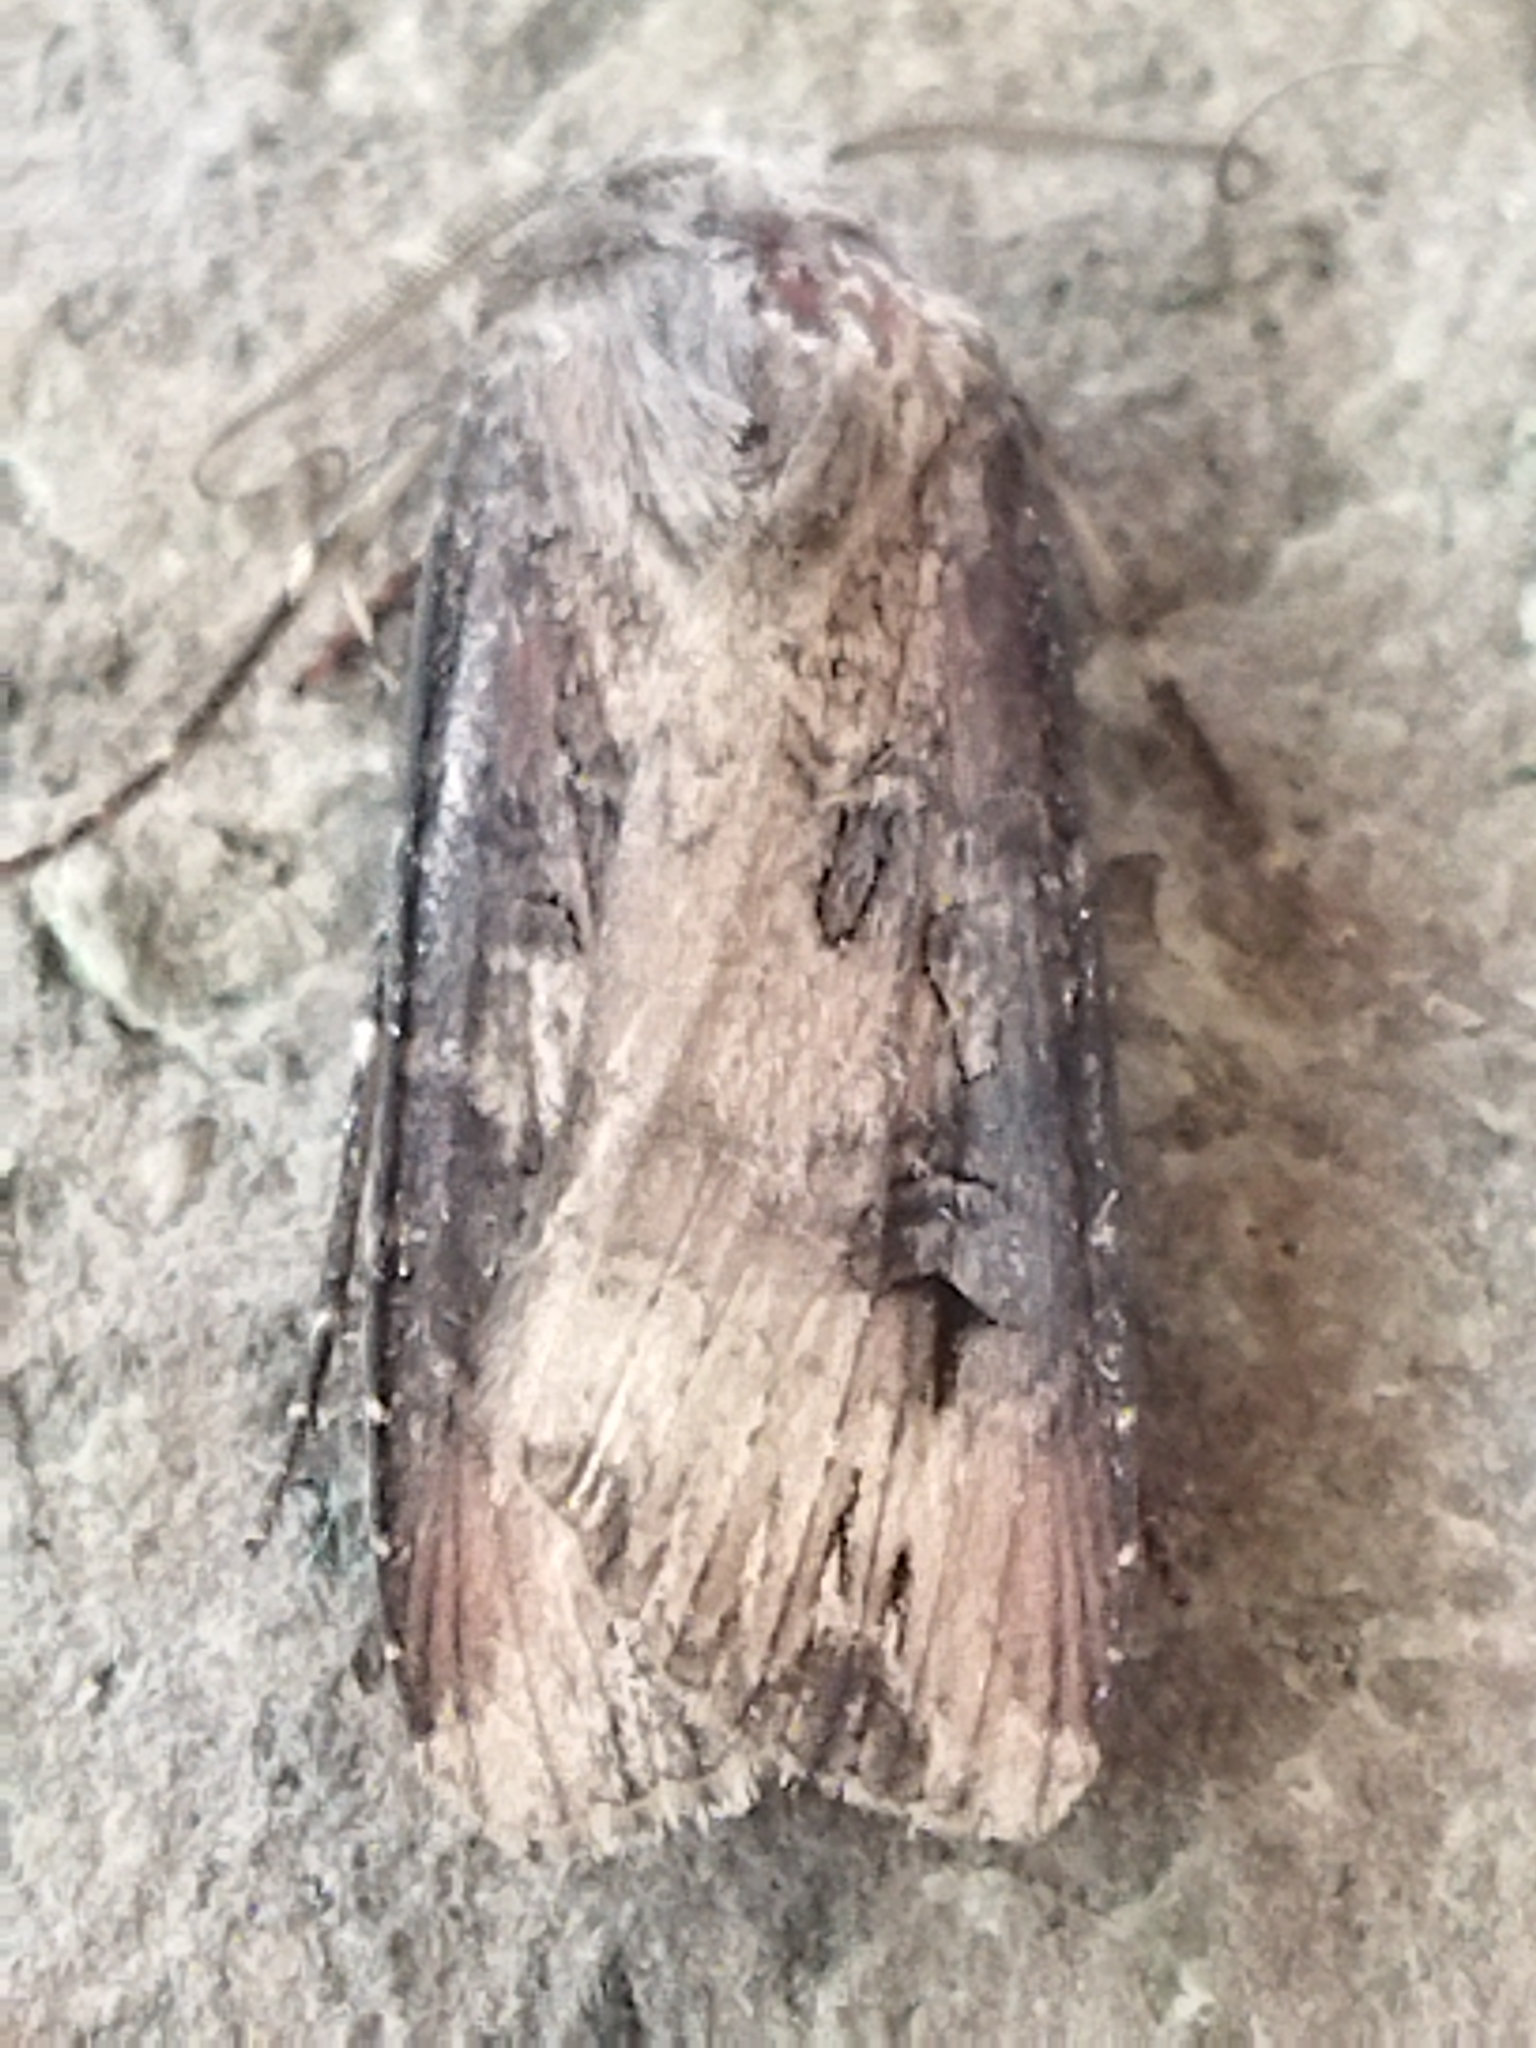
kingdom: Animalia
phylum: Arthropoda
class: Insecta
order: Lepidoptera
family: Noctuidae
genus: Agrotis
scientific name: Agrotis ipsilon
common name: Dark sword-grass
